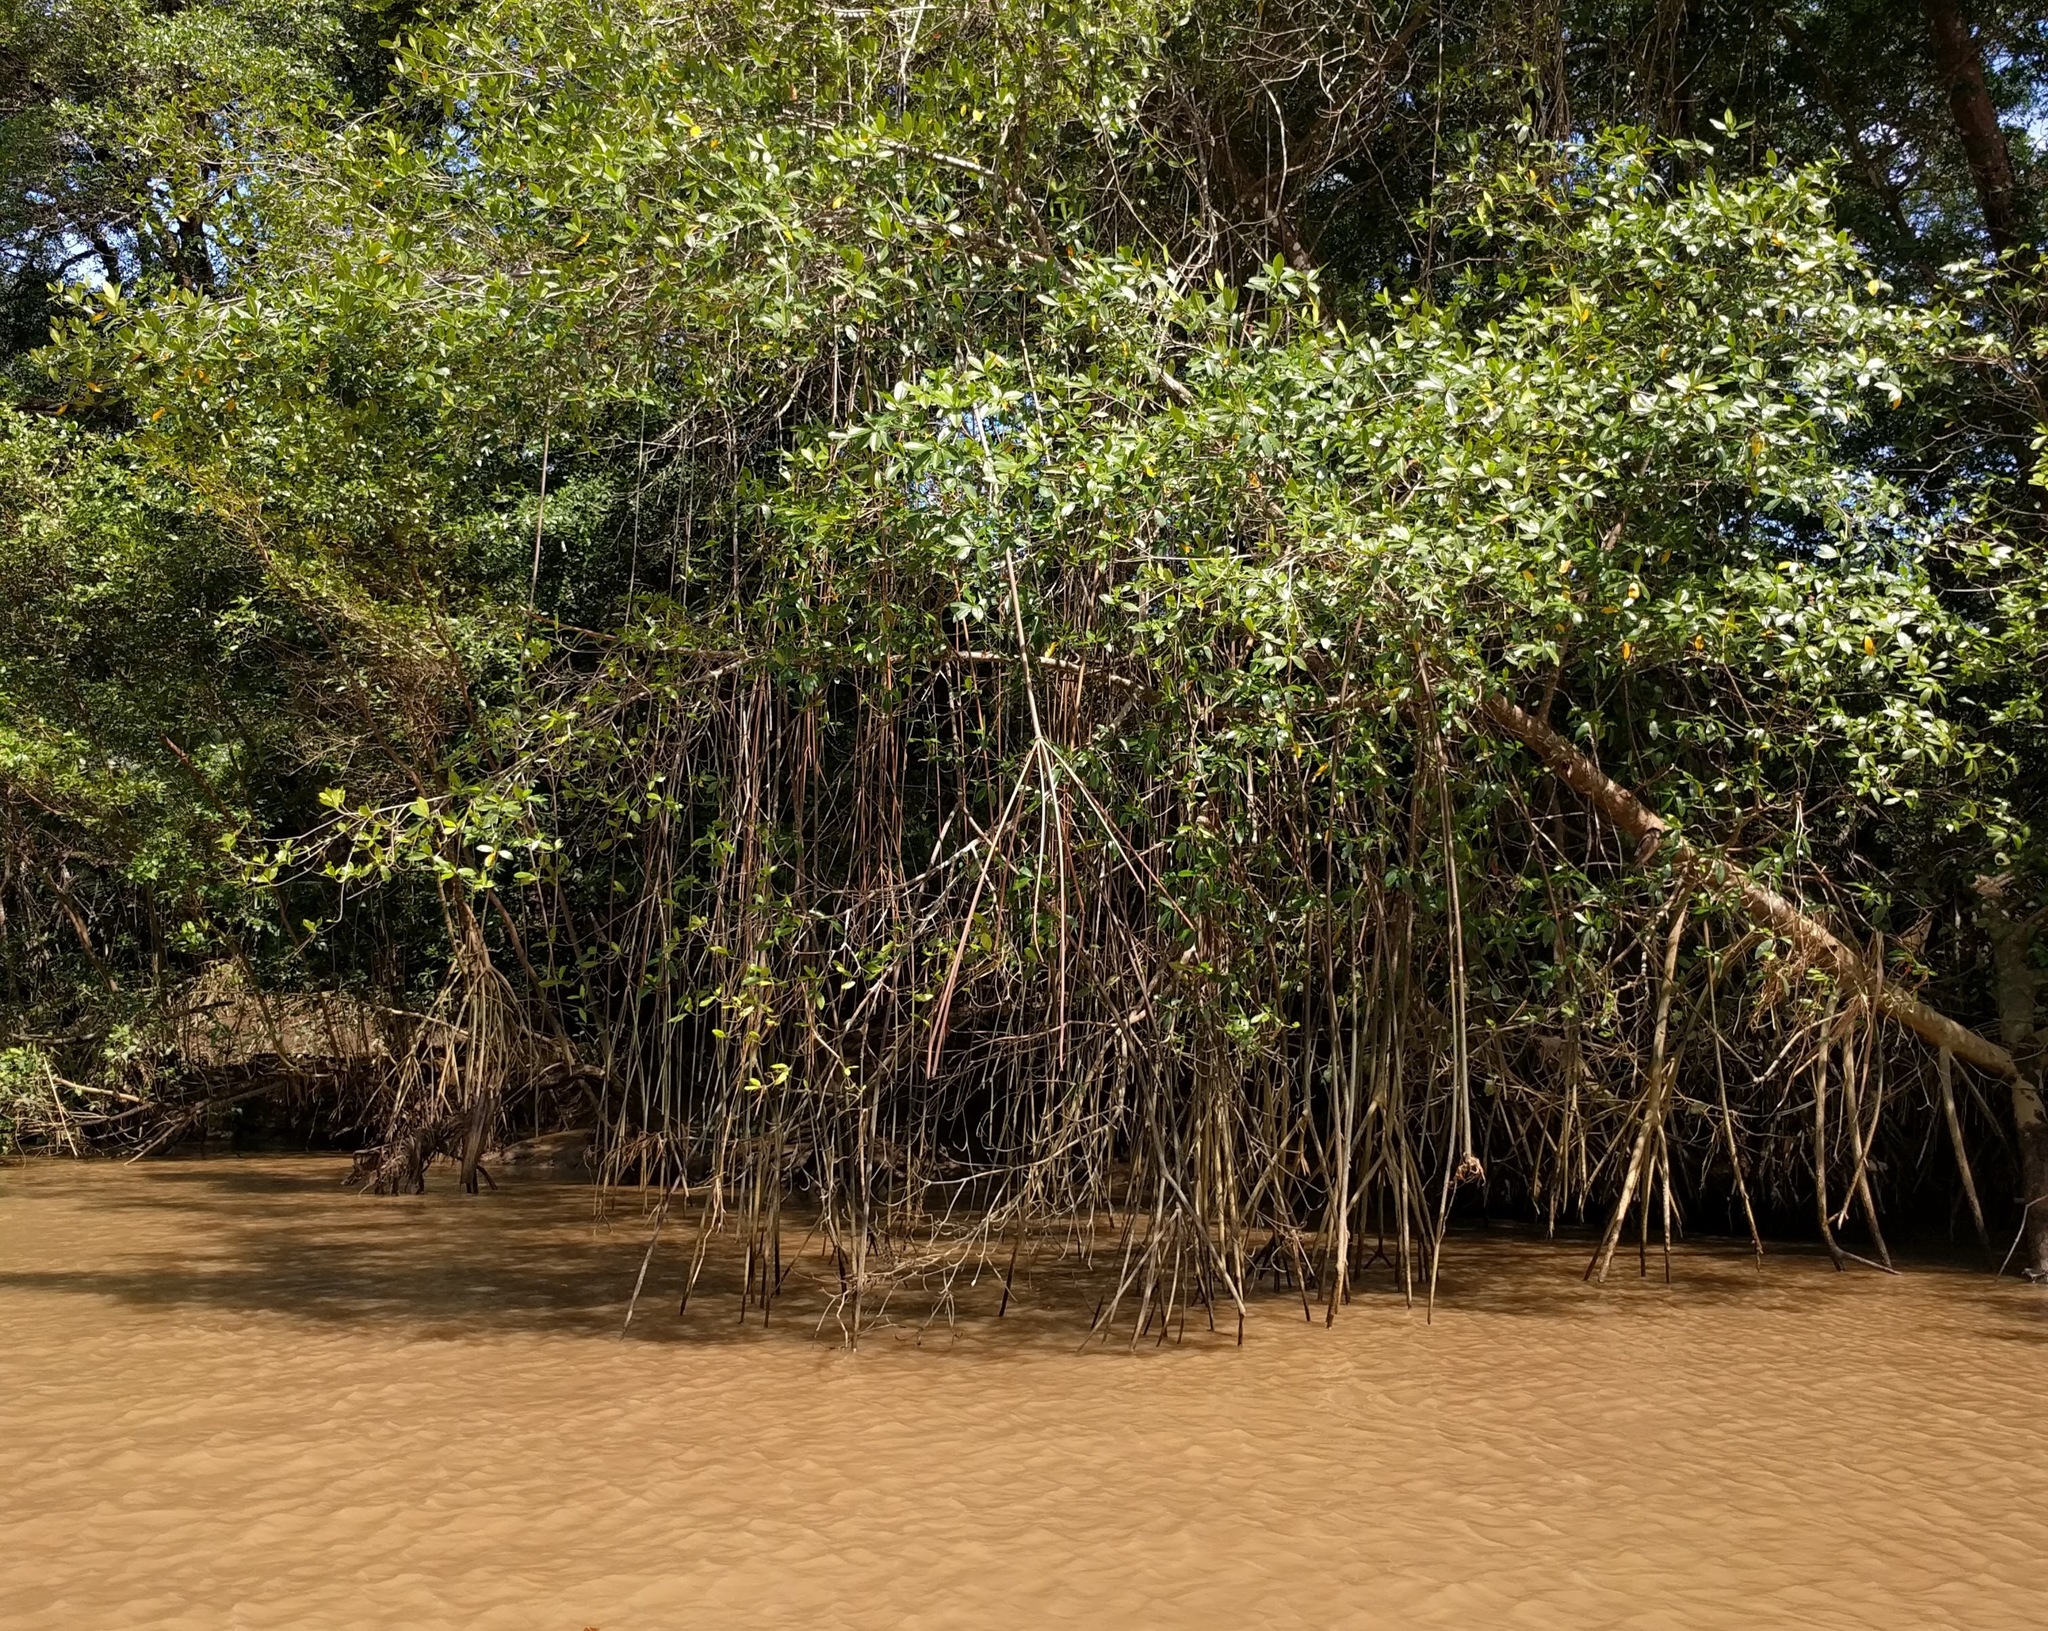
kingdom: Plantae
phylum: Tracheophyta
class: Magnoliopsida
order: Malpighiales
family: Rhizophoraceae
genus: Rhizophora
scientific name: Rhizophora mangle
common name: Red mangrove
